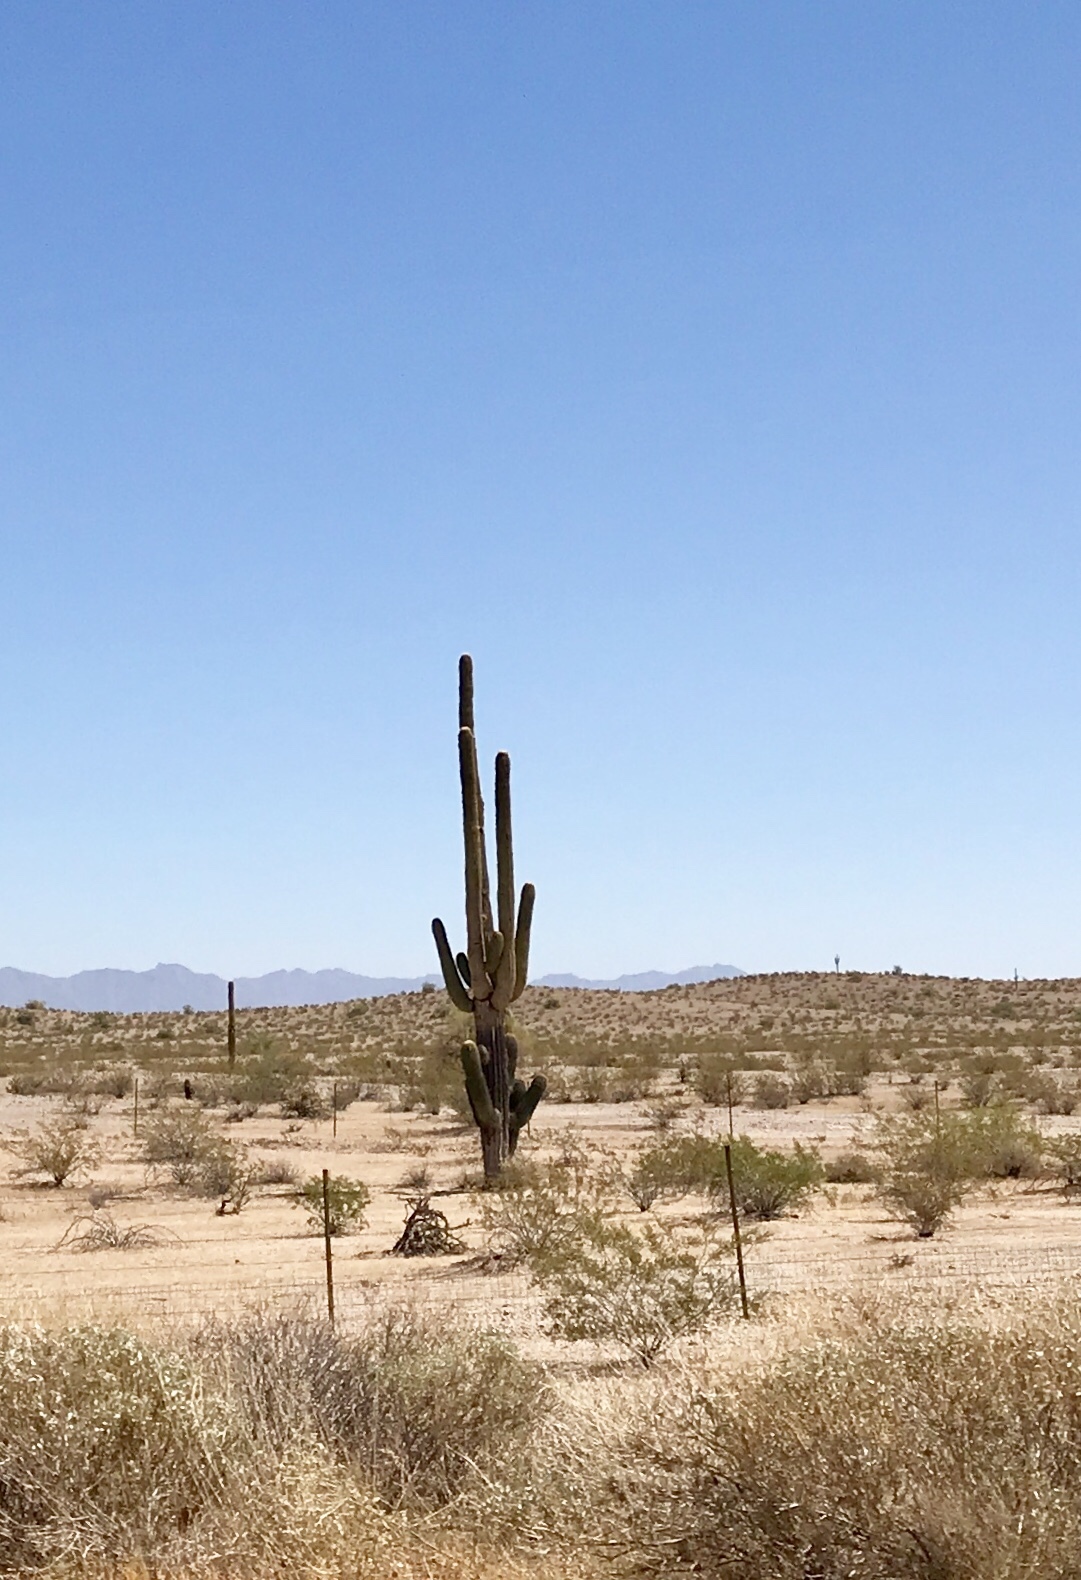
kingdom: Plantae
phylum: Tracheophyta
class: Magnoliopsida
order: Caryophyllales
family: Cactaceae
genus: Carnegiea
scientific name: Carnegiea gigantea
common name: Saguaro
